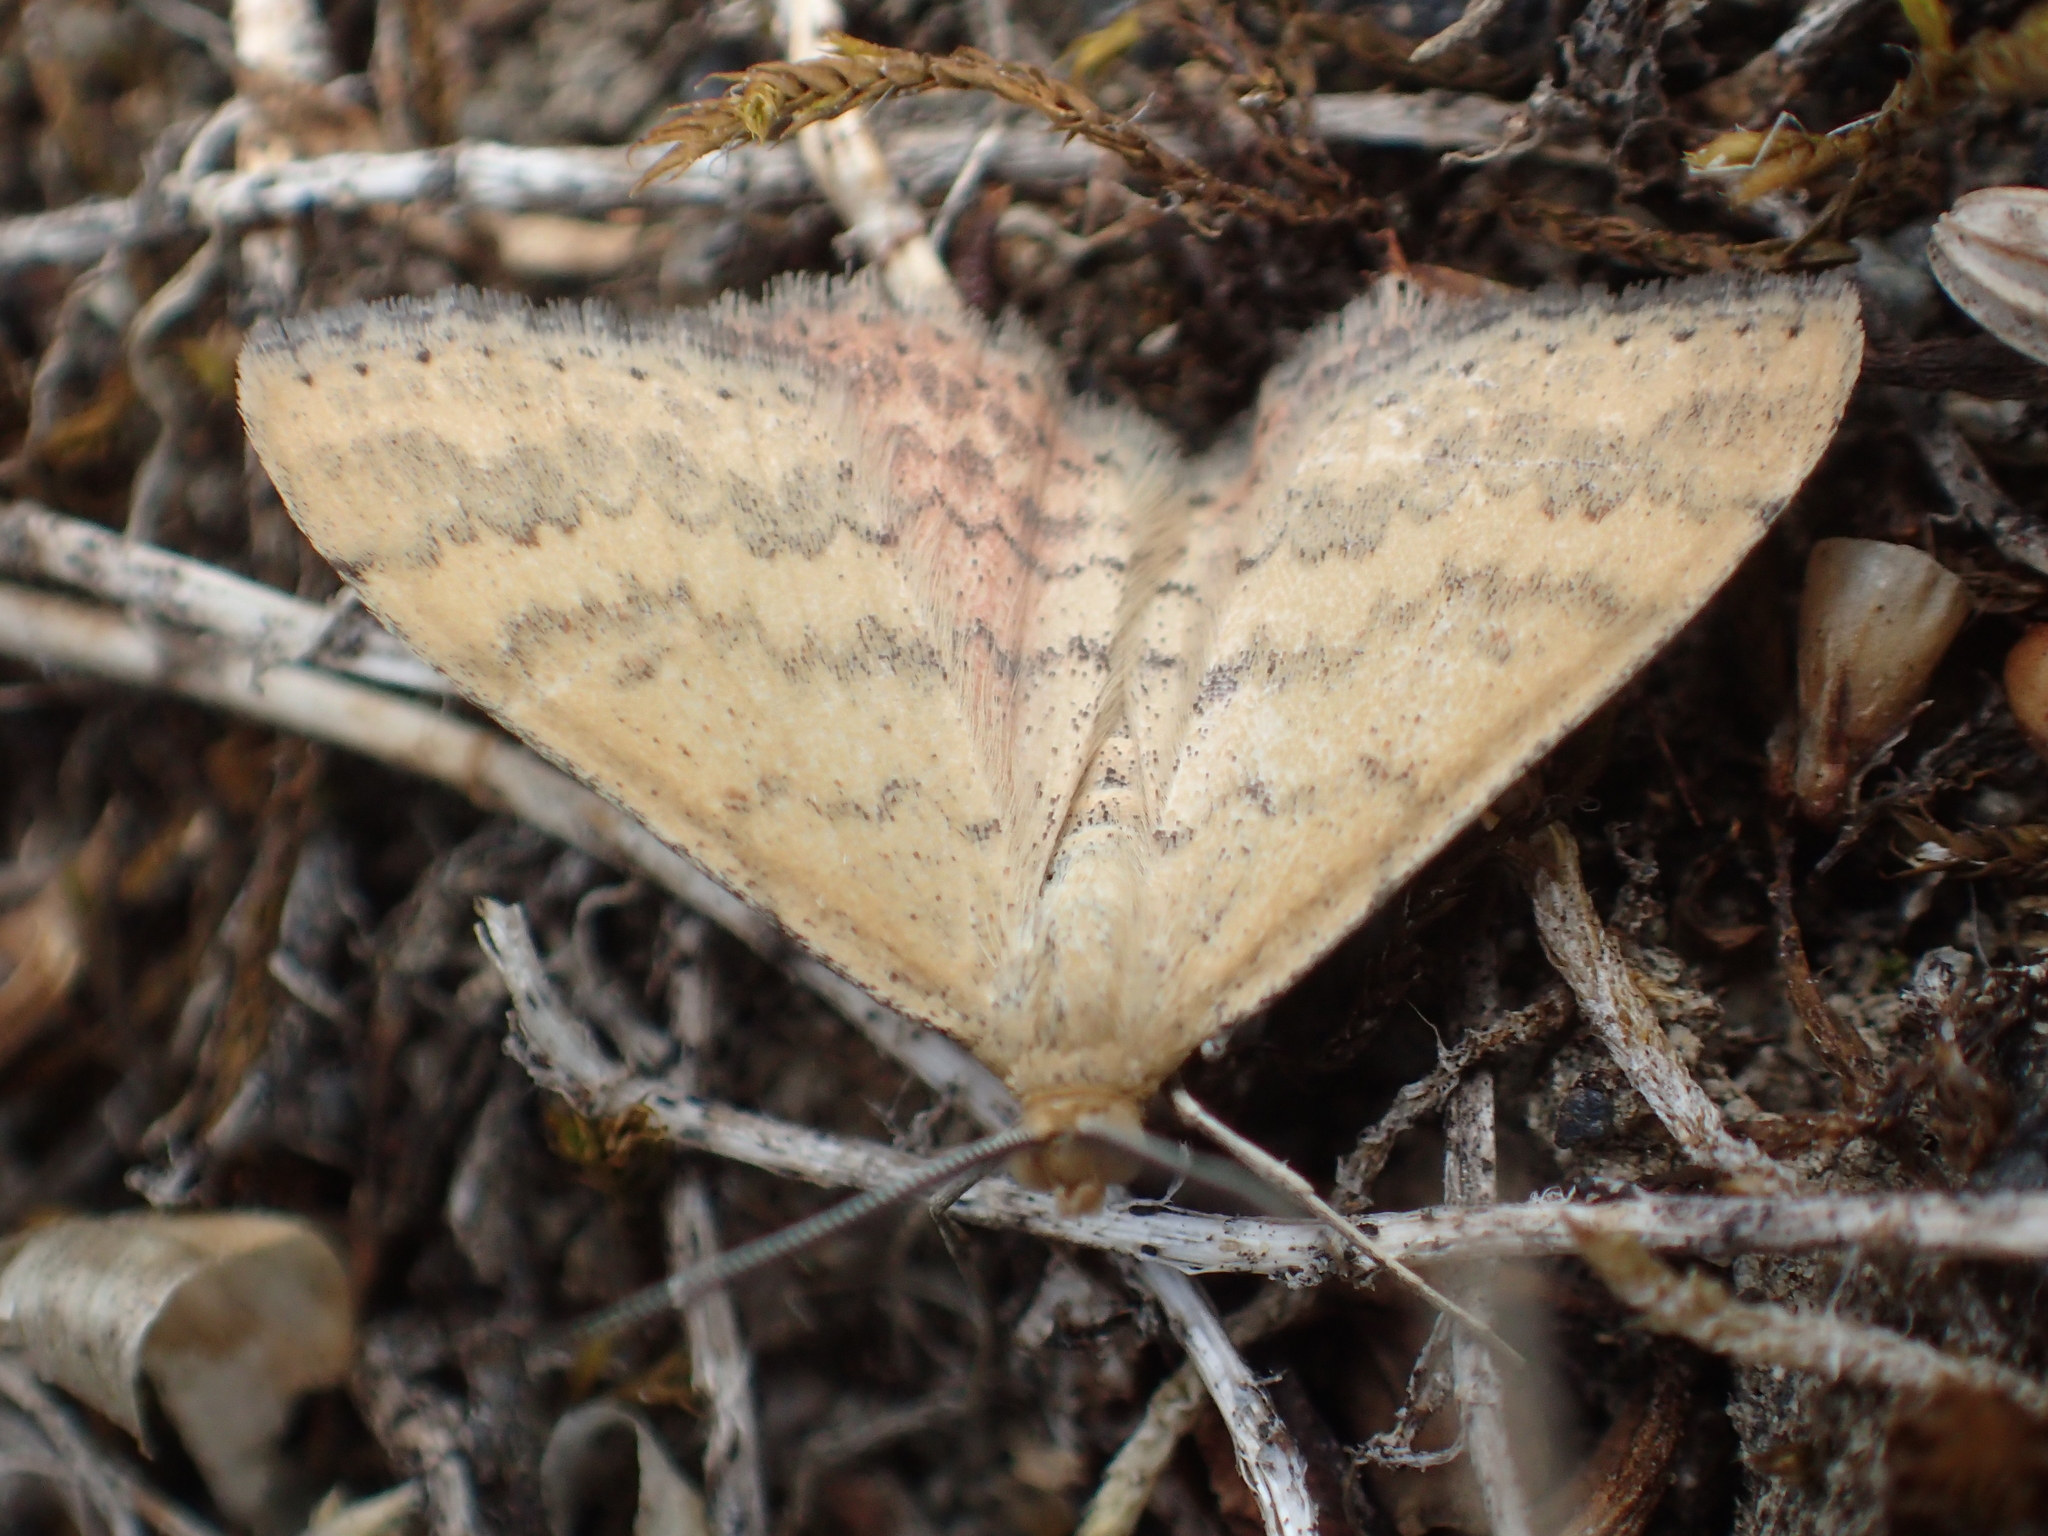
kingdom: Animalia
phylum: Arthropoda
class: Insecta
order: Lepidoptera
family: Geometridae
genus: Scopula
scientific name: Scopula rubraria
